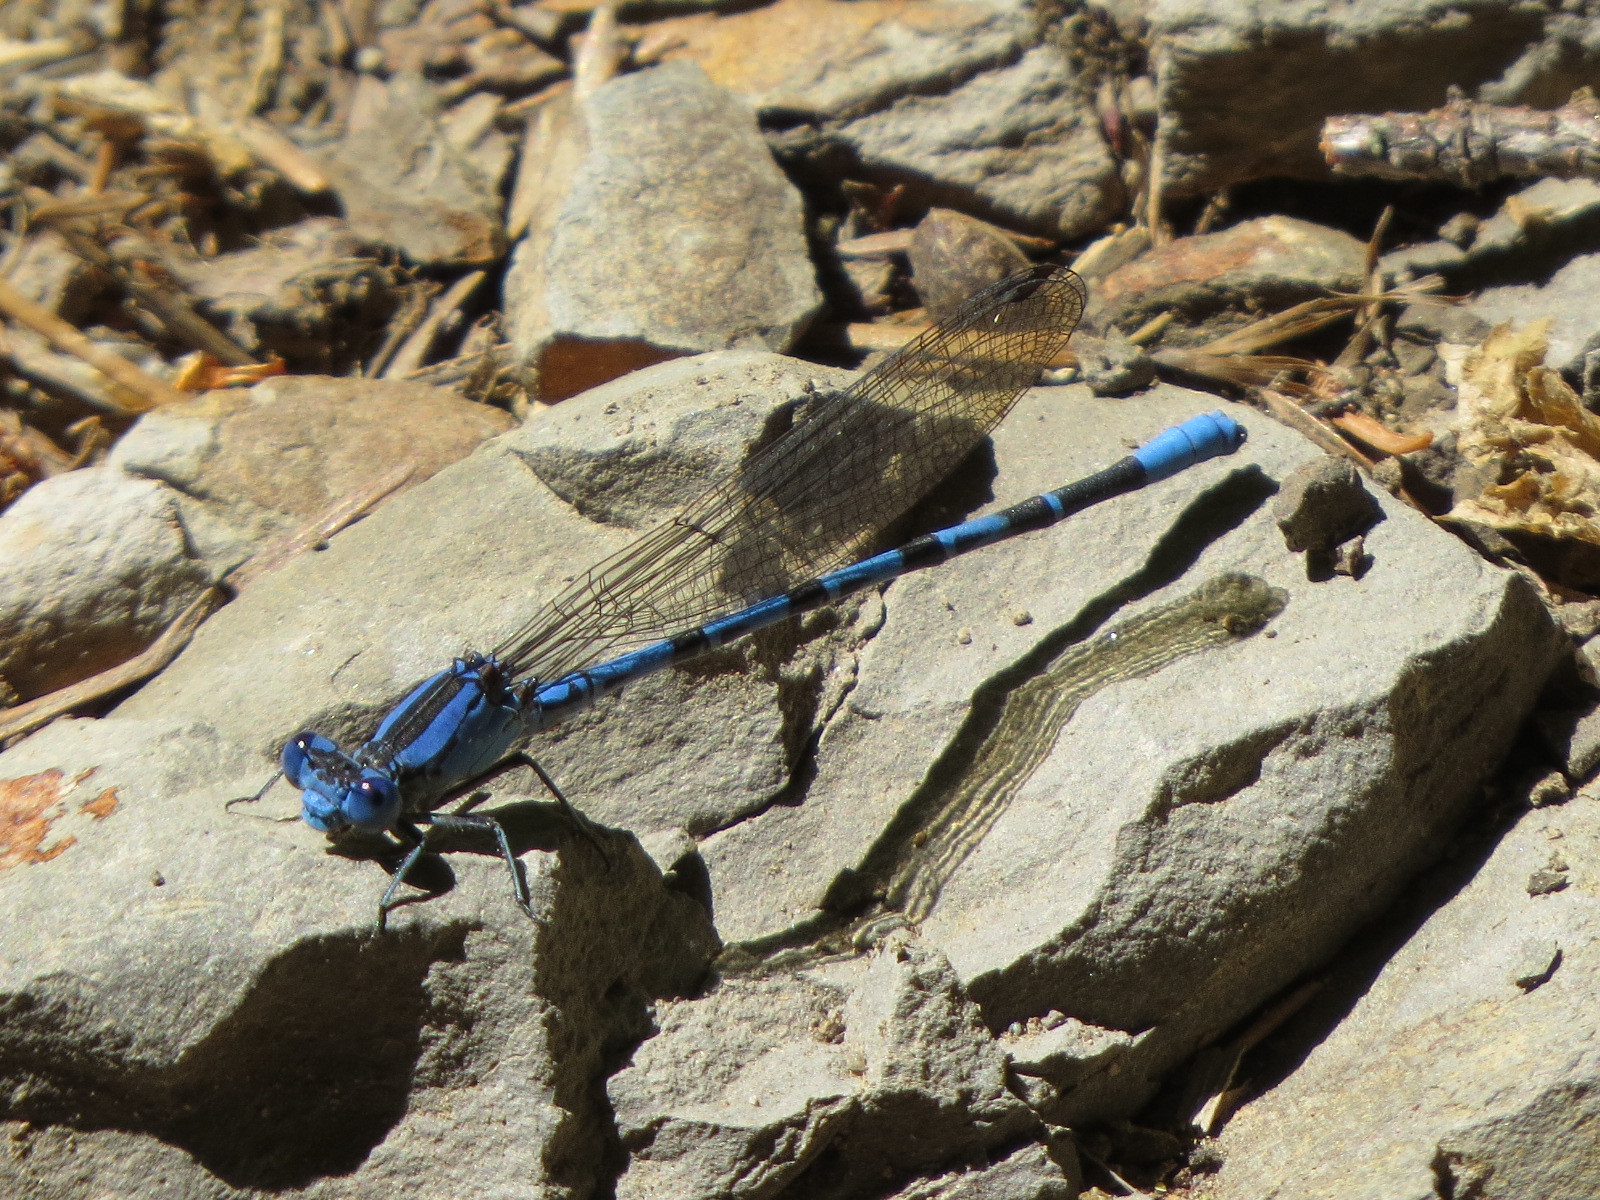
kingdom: Animalia
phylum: Arthropoda
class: Insecta
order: Odonata
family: Coenagrionidae
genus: Argia
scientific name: Argia vivida
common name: Vivid dancer
